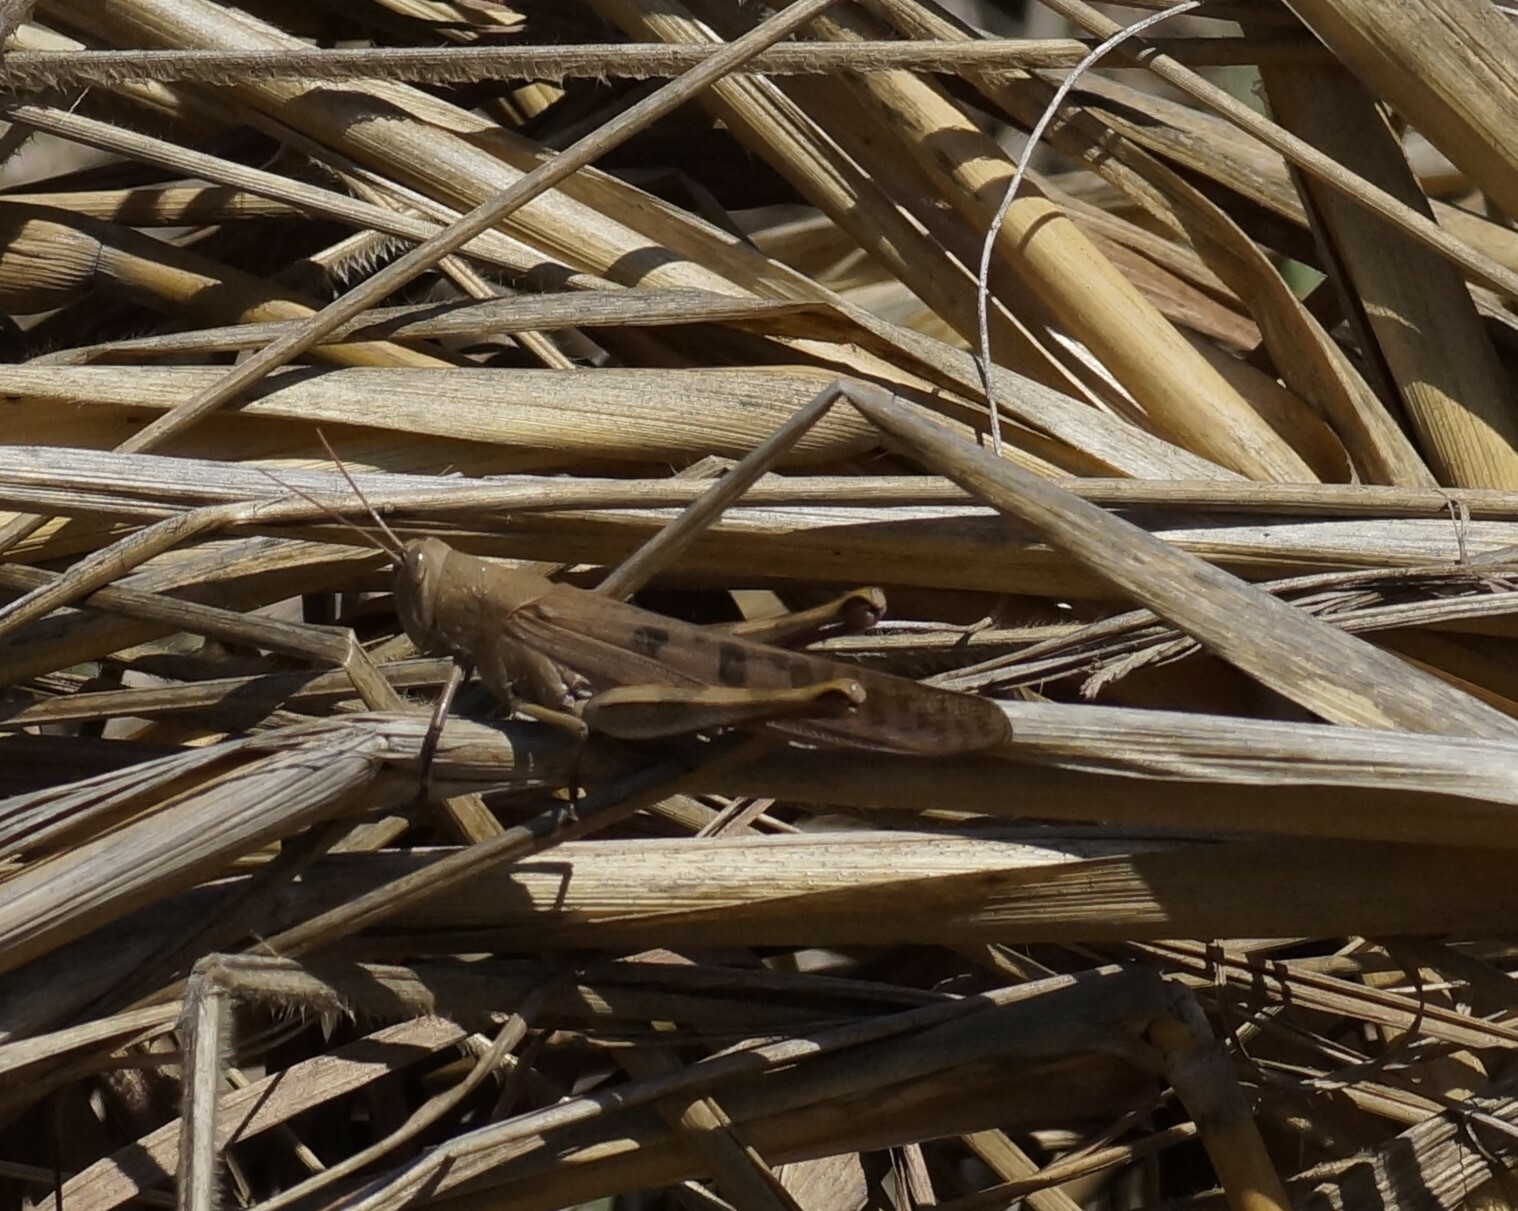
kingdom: Animalia
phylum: Arthropoda
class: Insecta
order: Orthoptera
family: Acrididae
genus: Austracris
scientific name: Austracris basalis
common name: Spotted spur-throated locust
